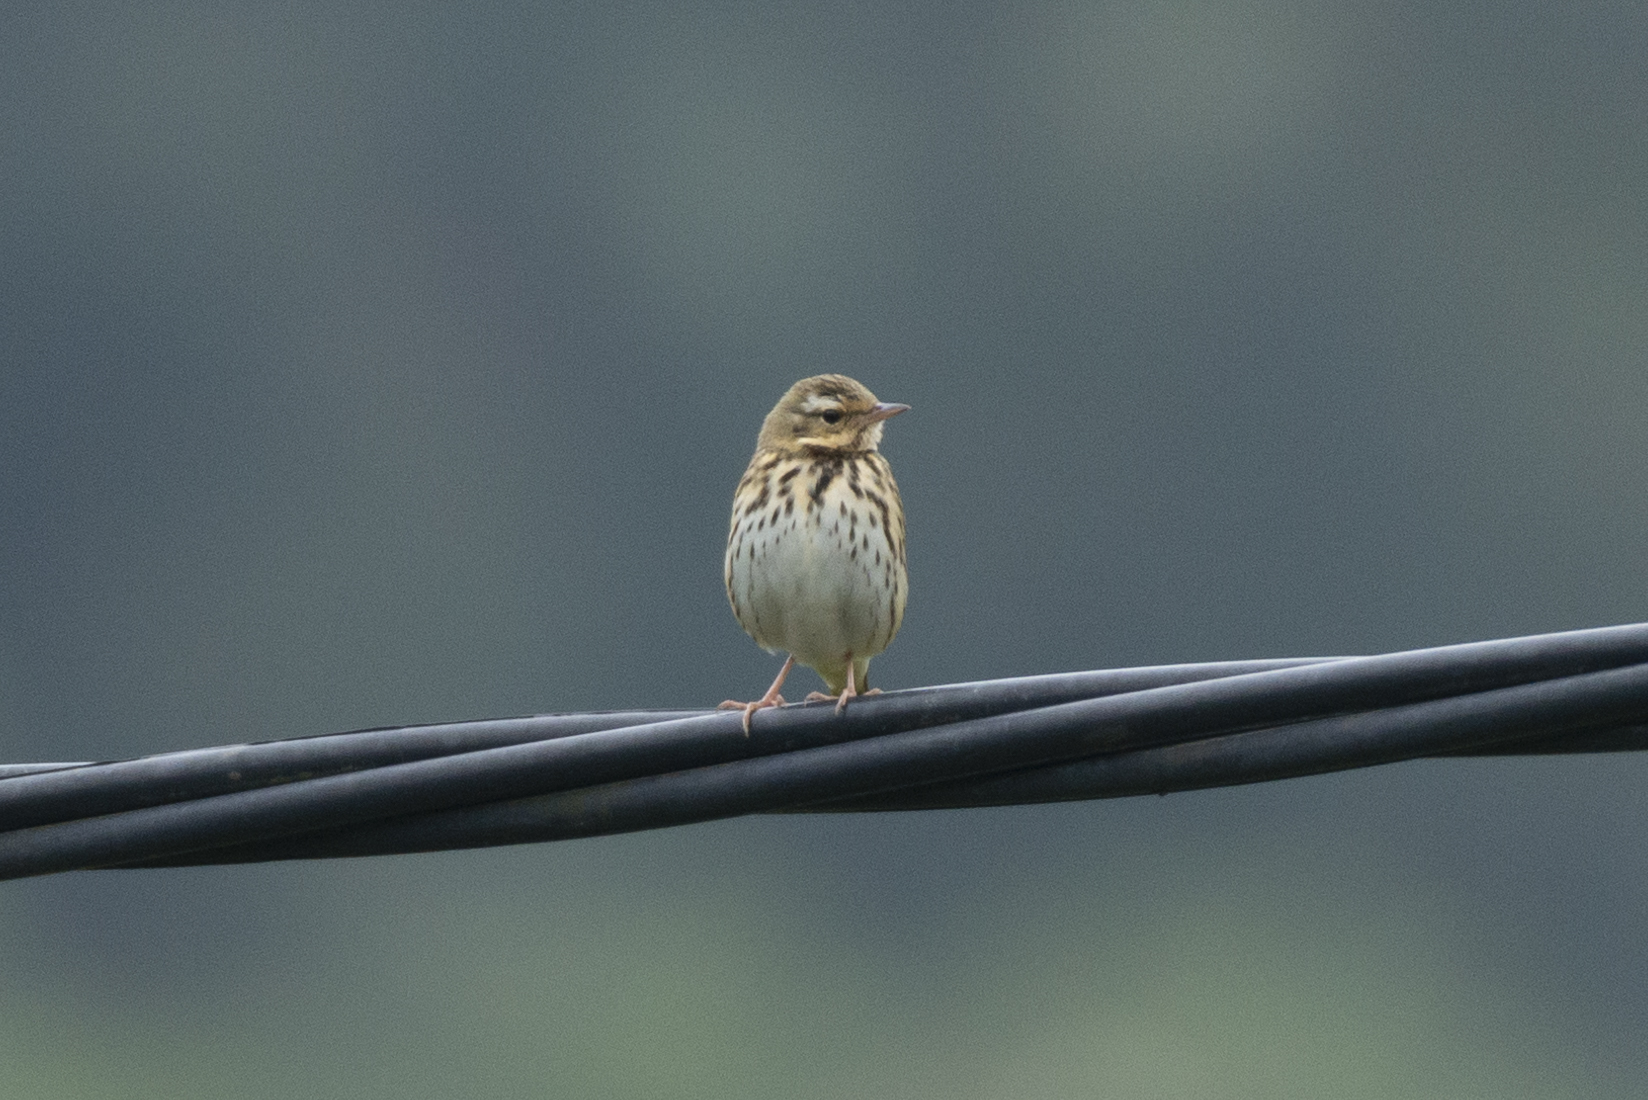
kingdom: Animalia
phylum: Chordata
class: Aves
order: Passeriformes
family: Motacillidae
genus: Anthus
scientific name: Anthus hodgsoni
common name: Olive-backed pipit
